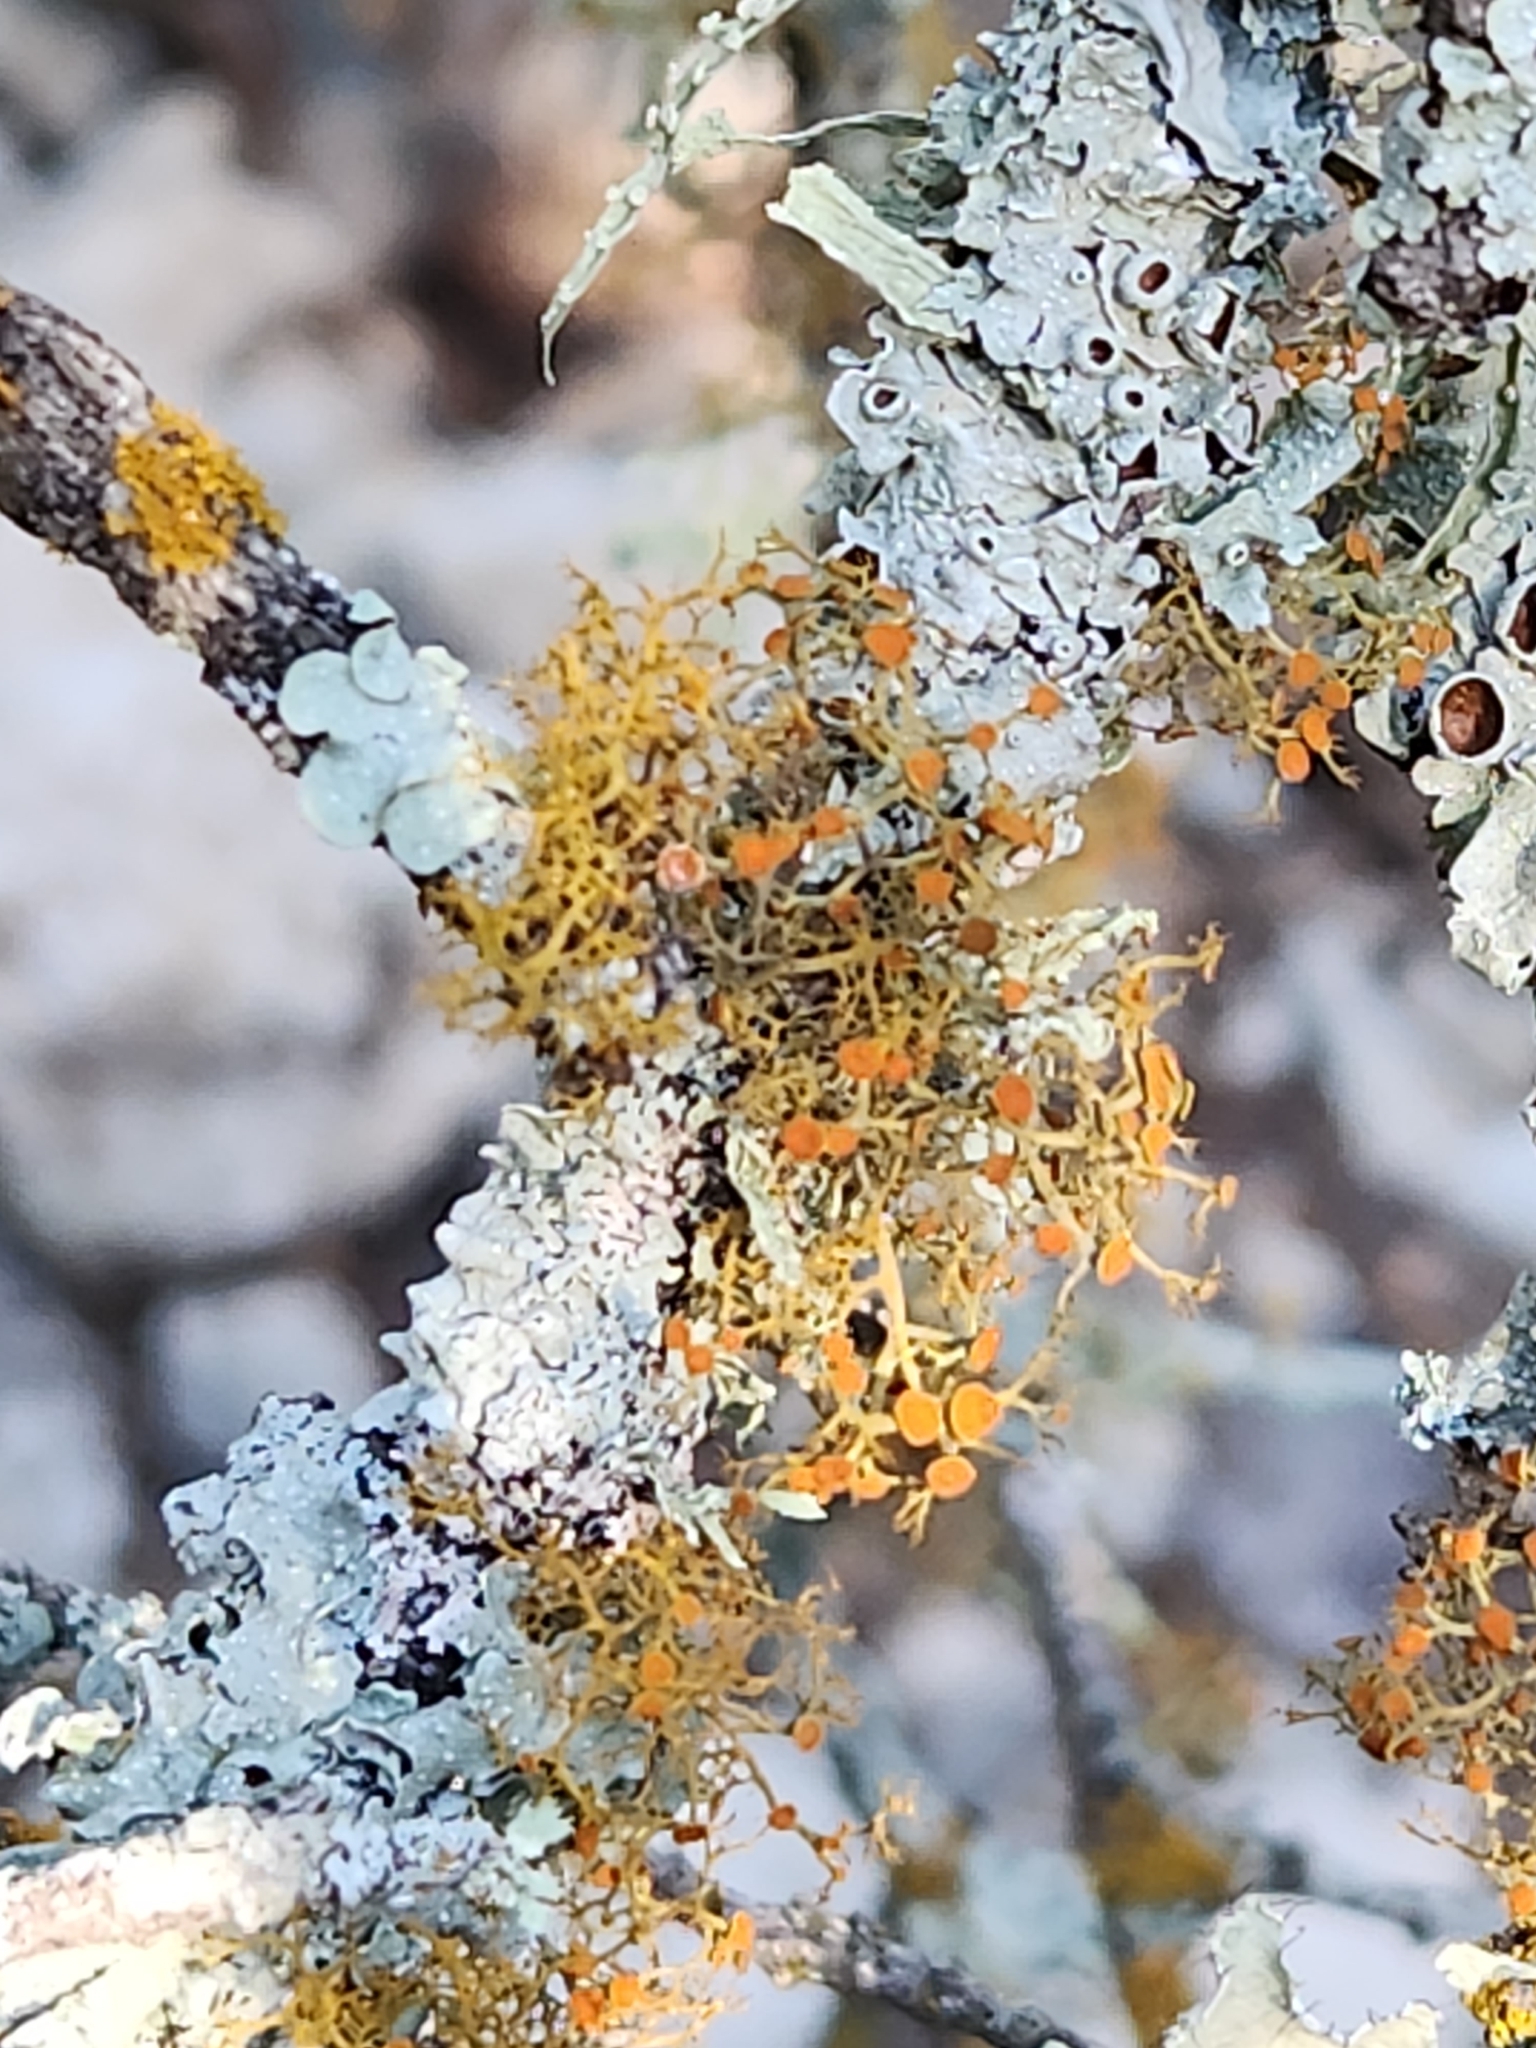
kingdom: Fungi
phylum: Ascomycota
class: Lecanoromycetes
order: Teloschistales
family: Teloschistaceae
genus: Teloschistes
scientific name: Teloschistes exilis
